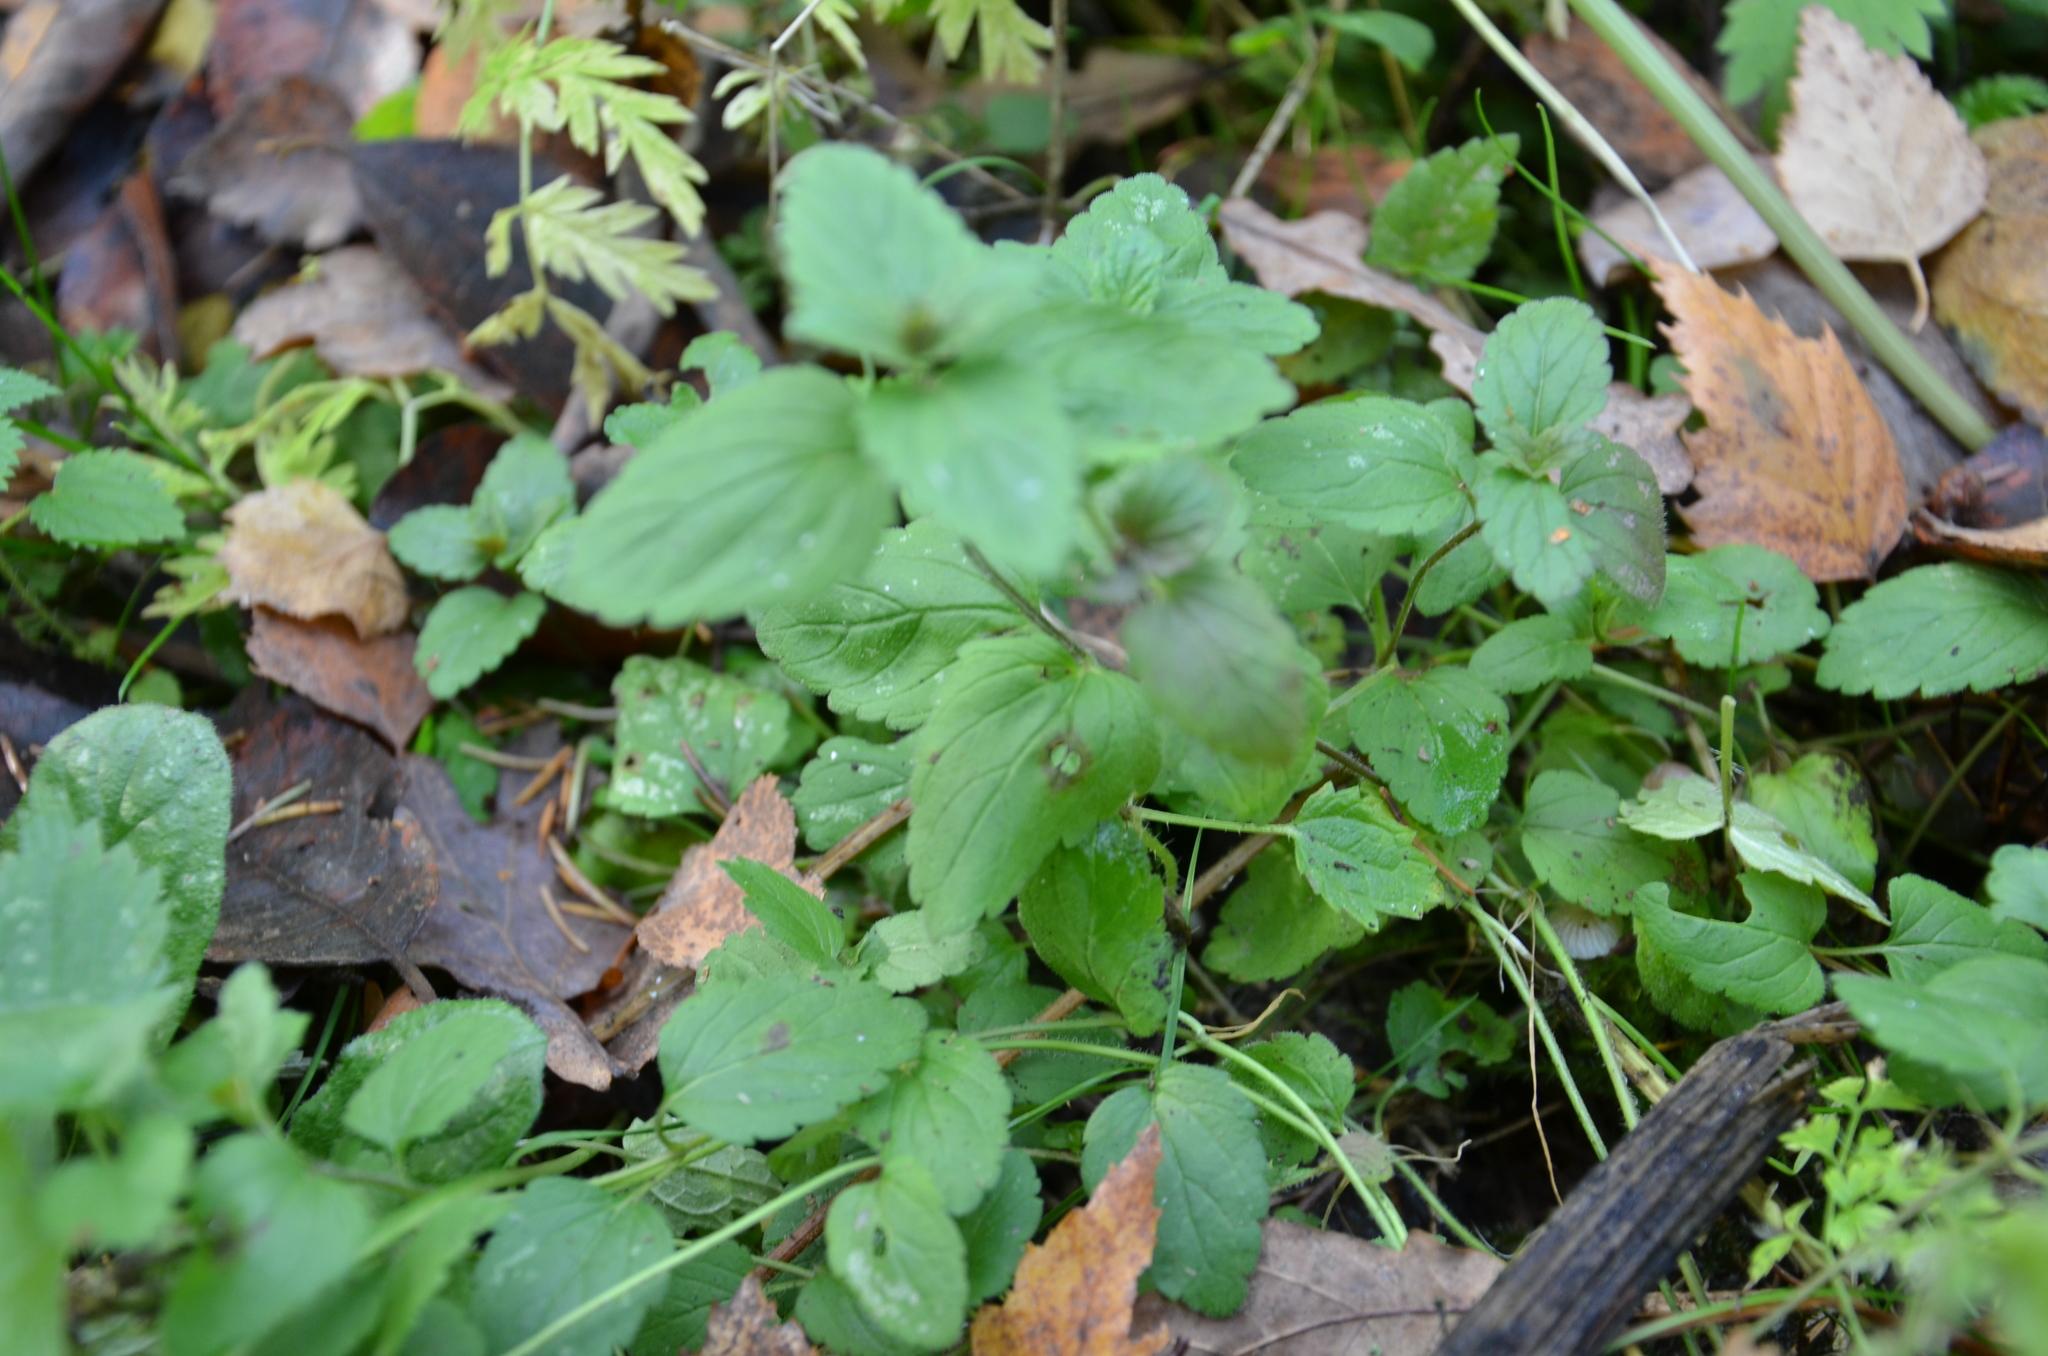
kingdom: Plantae
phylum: Tracheophyta
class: Magnoliopsida
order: Lamiales
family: Plantaginaceae
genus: Veronica
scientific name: Veronica chamaedrys
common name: Germander speedwell
